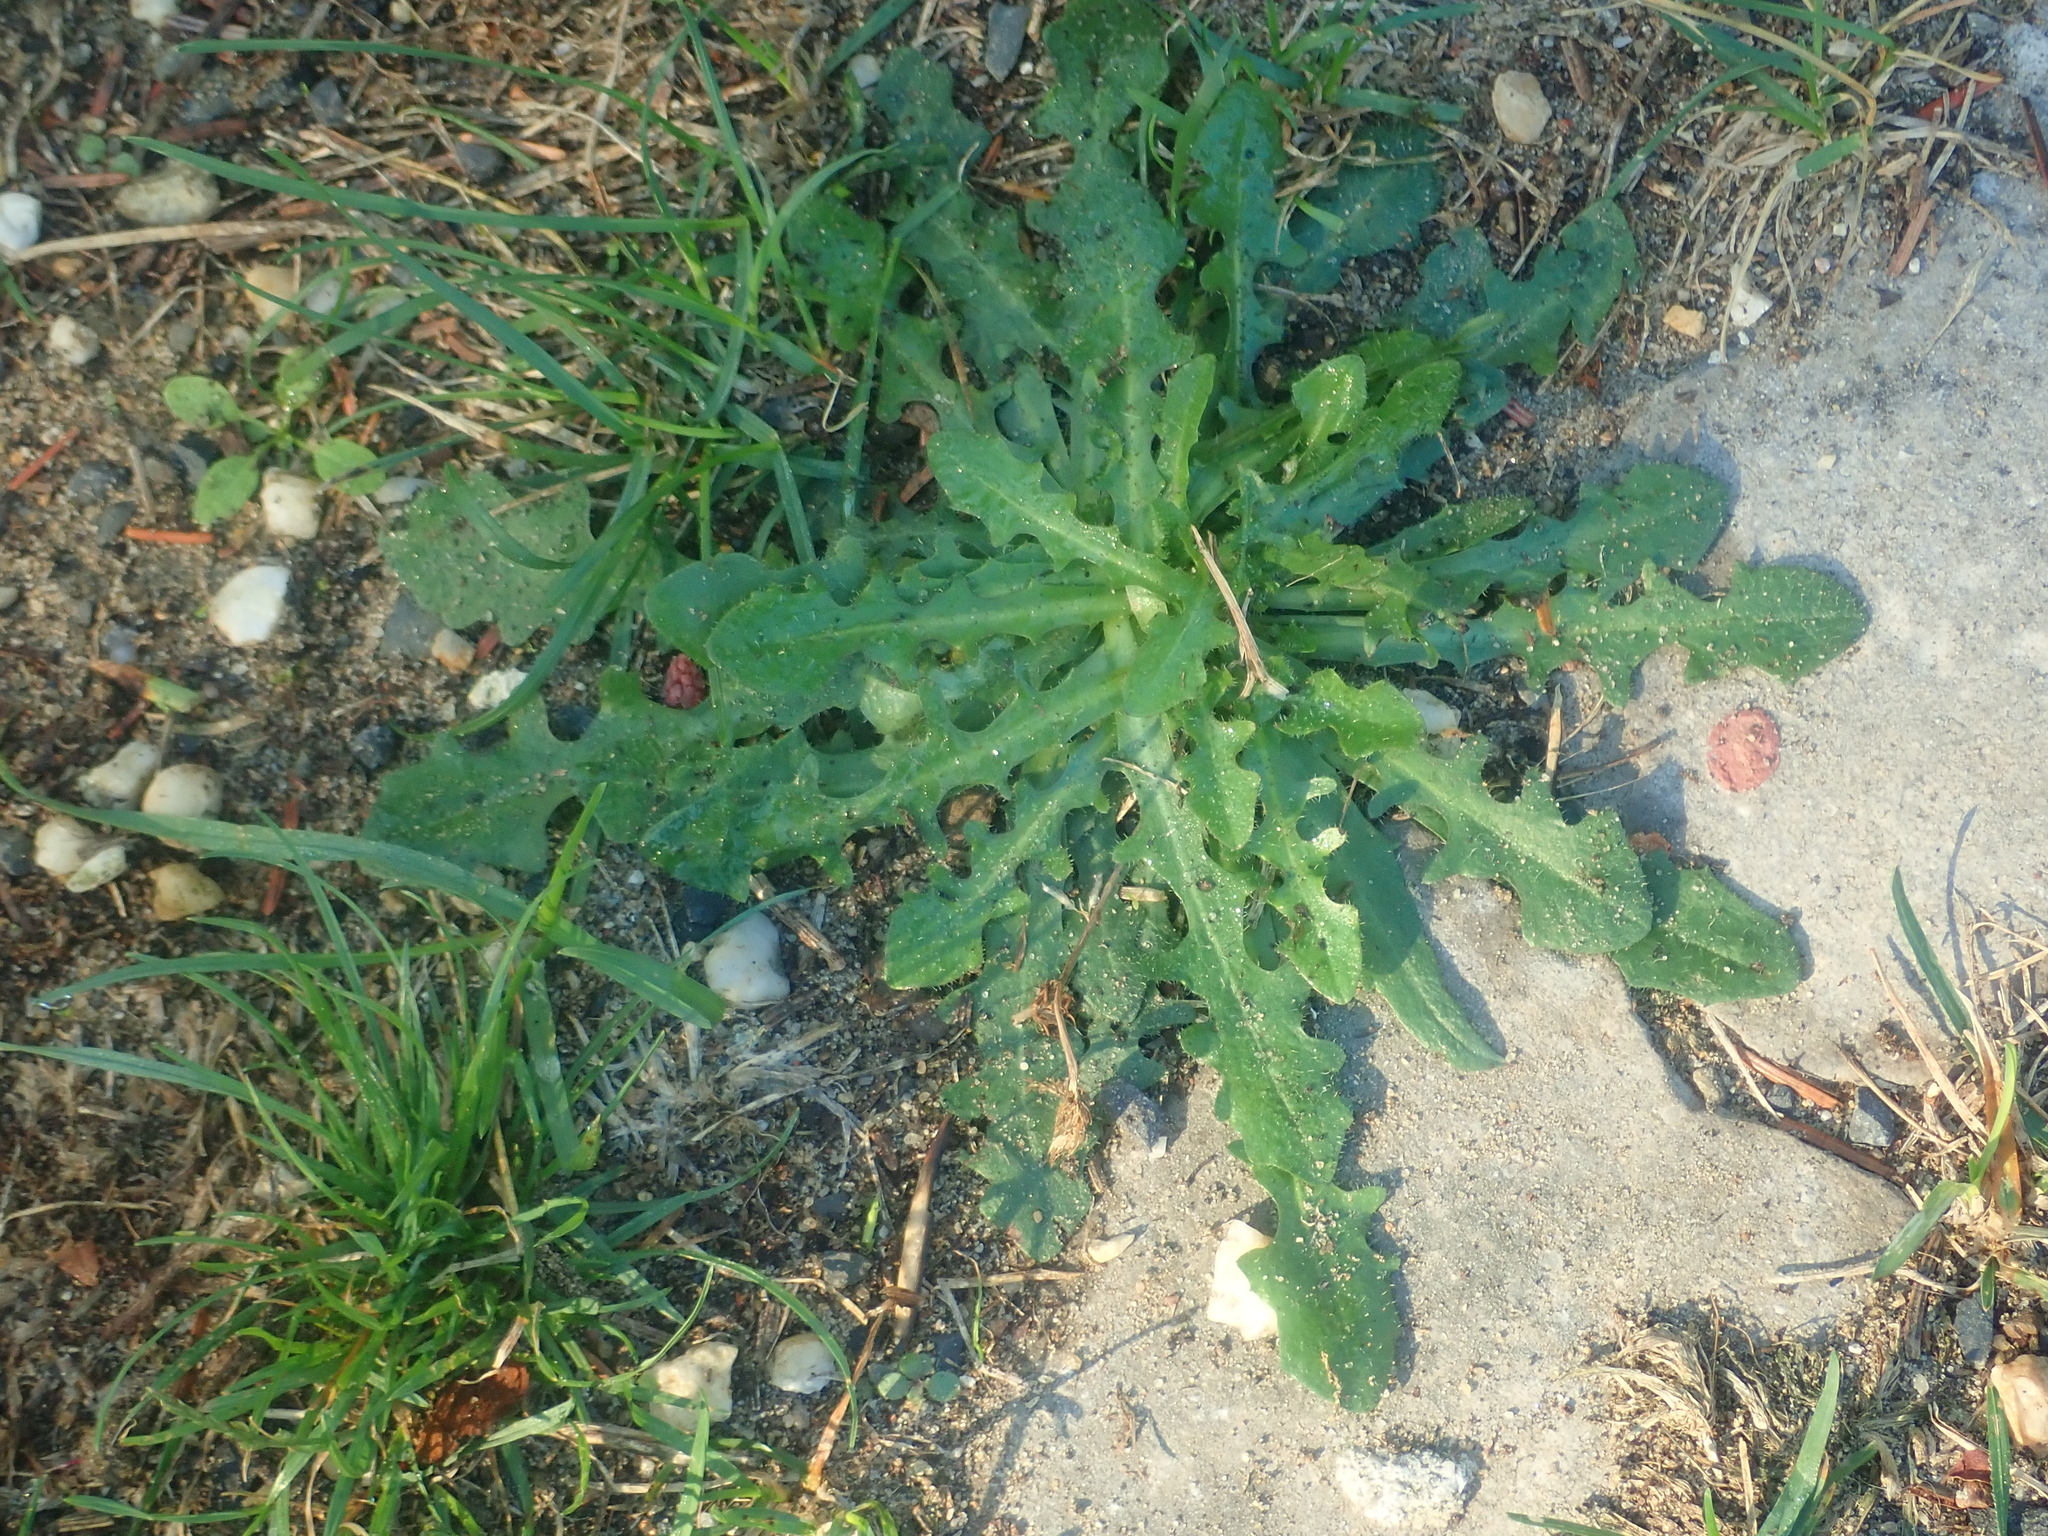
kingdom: Plantae
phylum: Tracheophyta
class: Magnoliopsida
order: Asterales
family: Asteraceae
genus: Hypochaeris
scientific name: Hypochaeris radicata
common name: Flatweed
